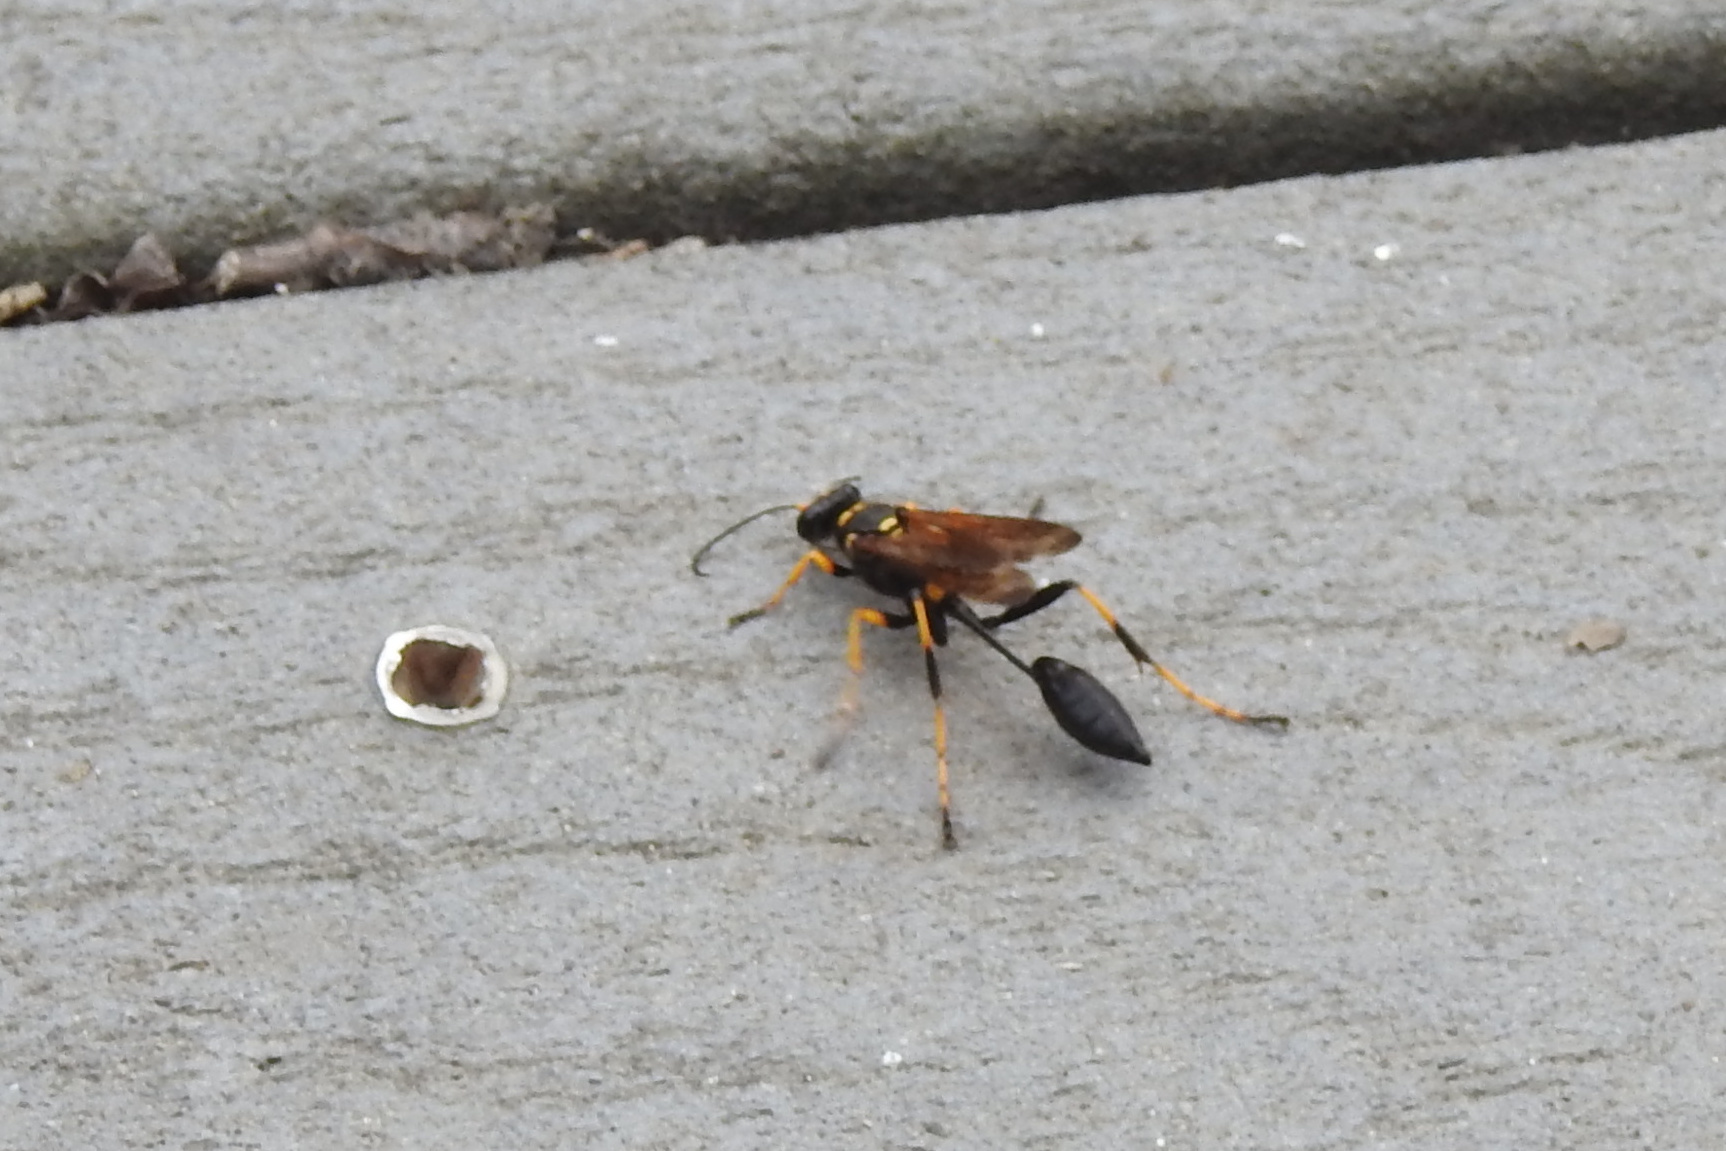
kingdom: Animalia
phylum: Arthropoda
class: Insecta
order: Hymenoptera
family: Sphecidae
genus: Sceliphron
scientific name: Sceliphron caementarium
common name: Mud dauber
